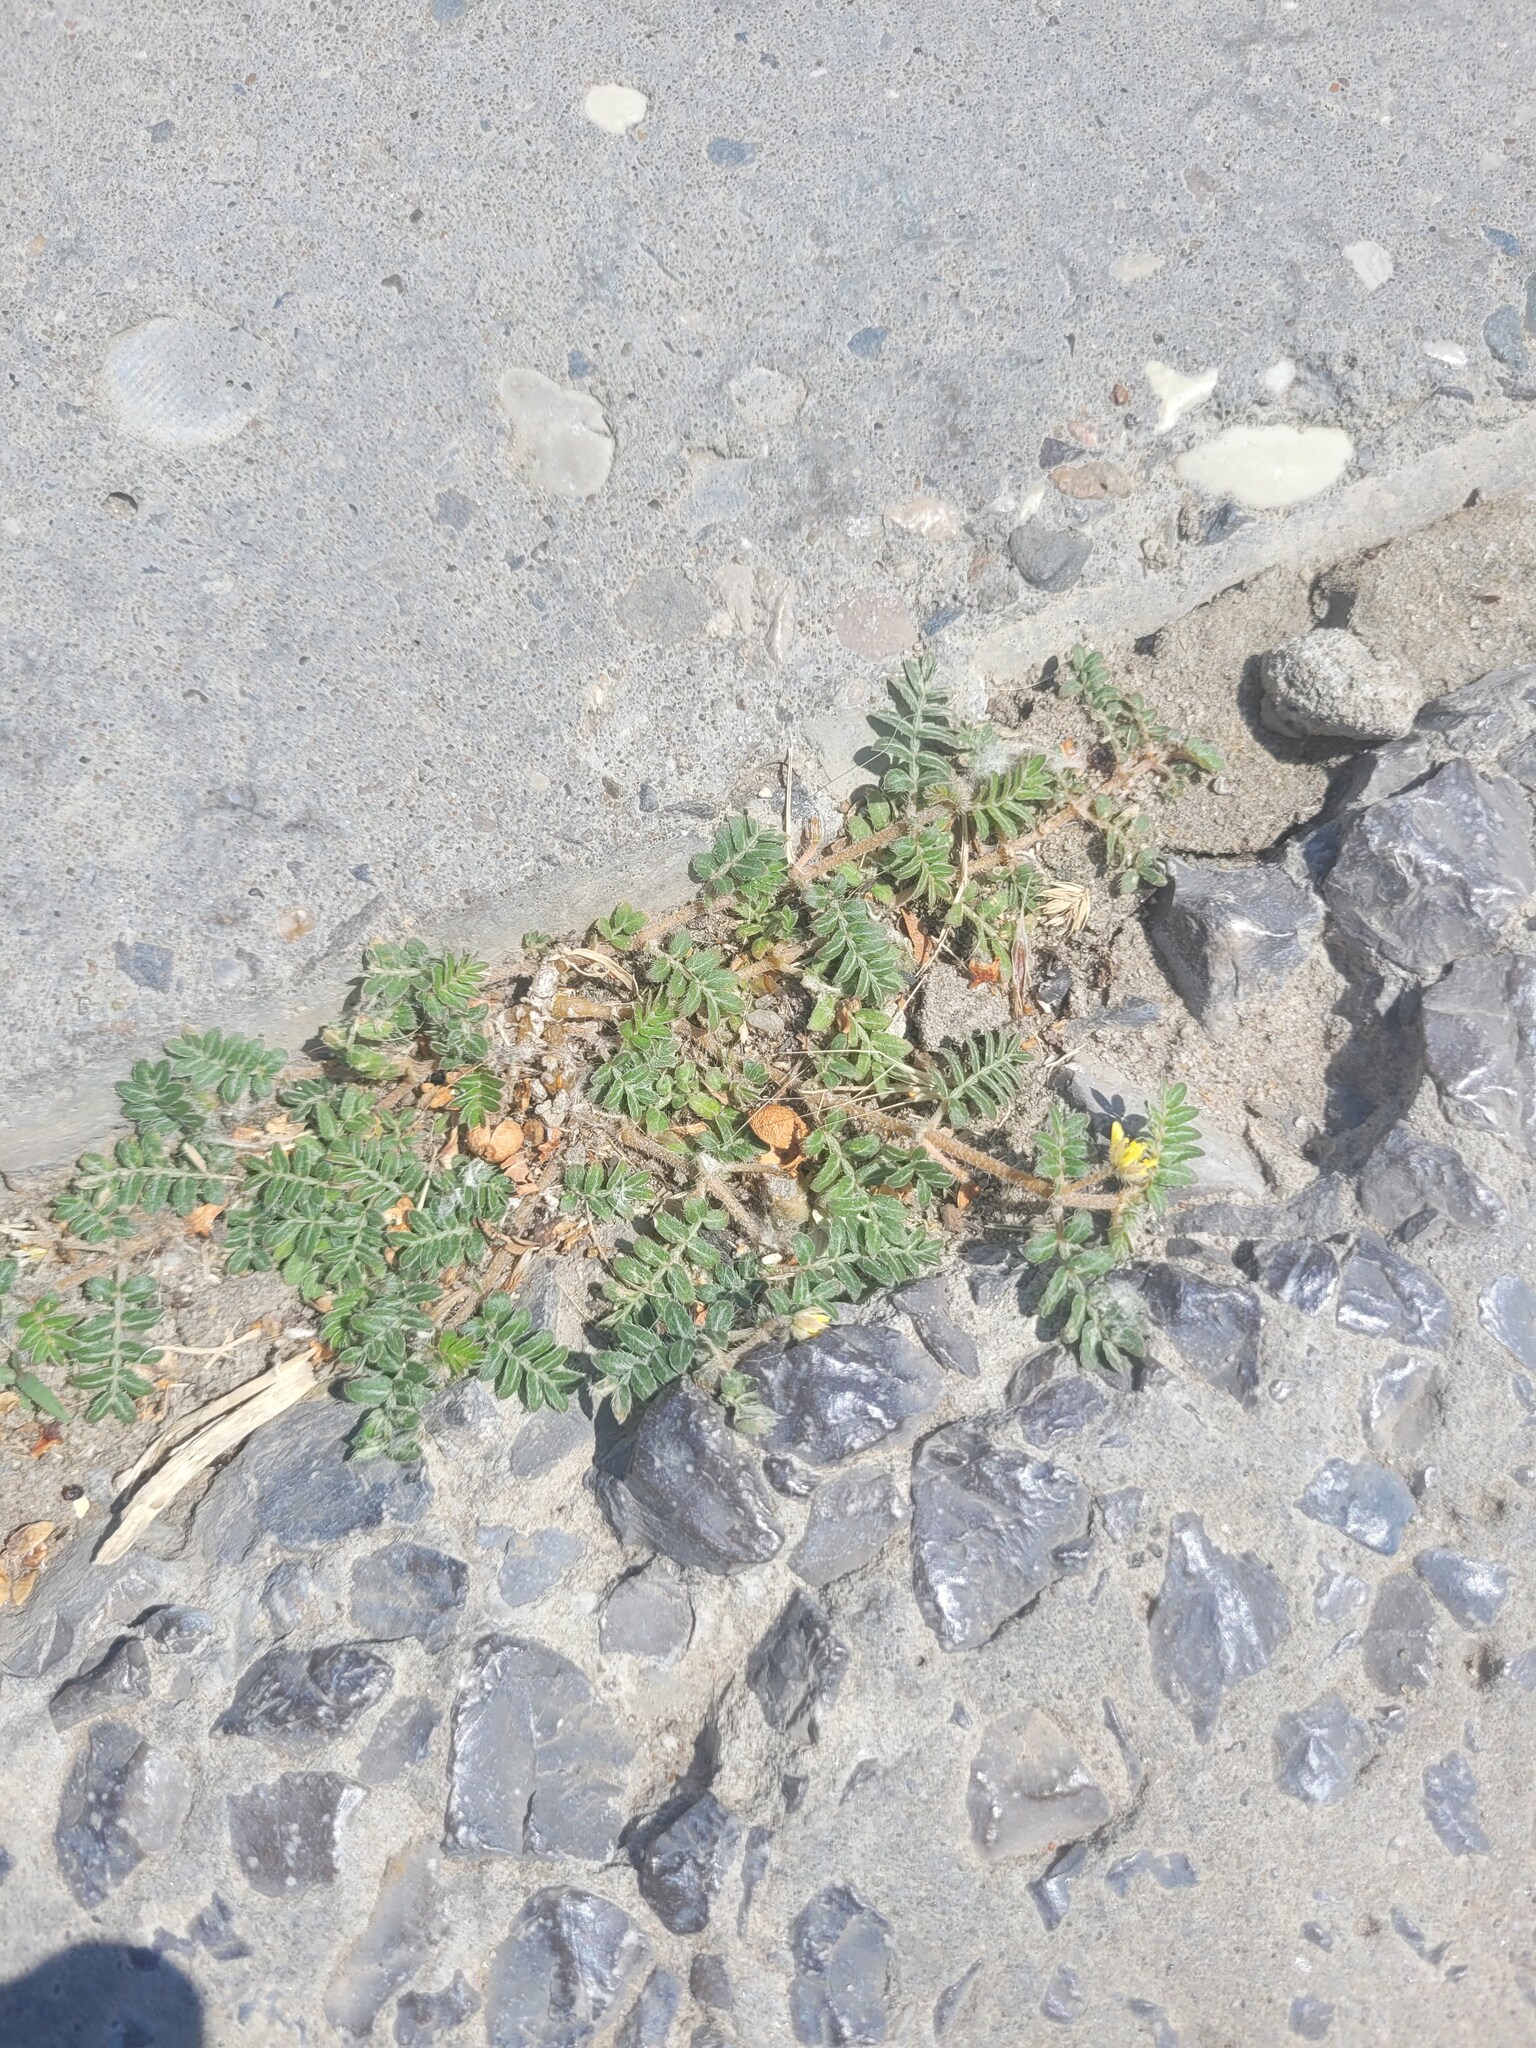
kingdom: Plantae
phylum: Tracheophyta
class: Magnoliopsida
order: Zygophyllales
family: Zygophyllaceae
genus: Tribulus
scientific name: Tribulus terrestris
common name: Puncturevine
